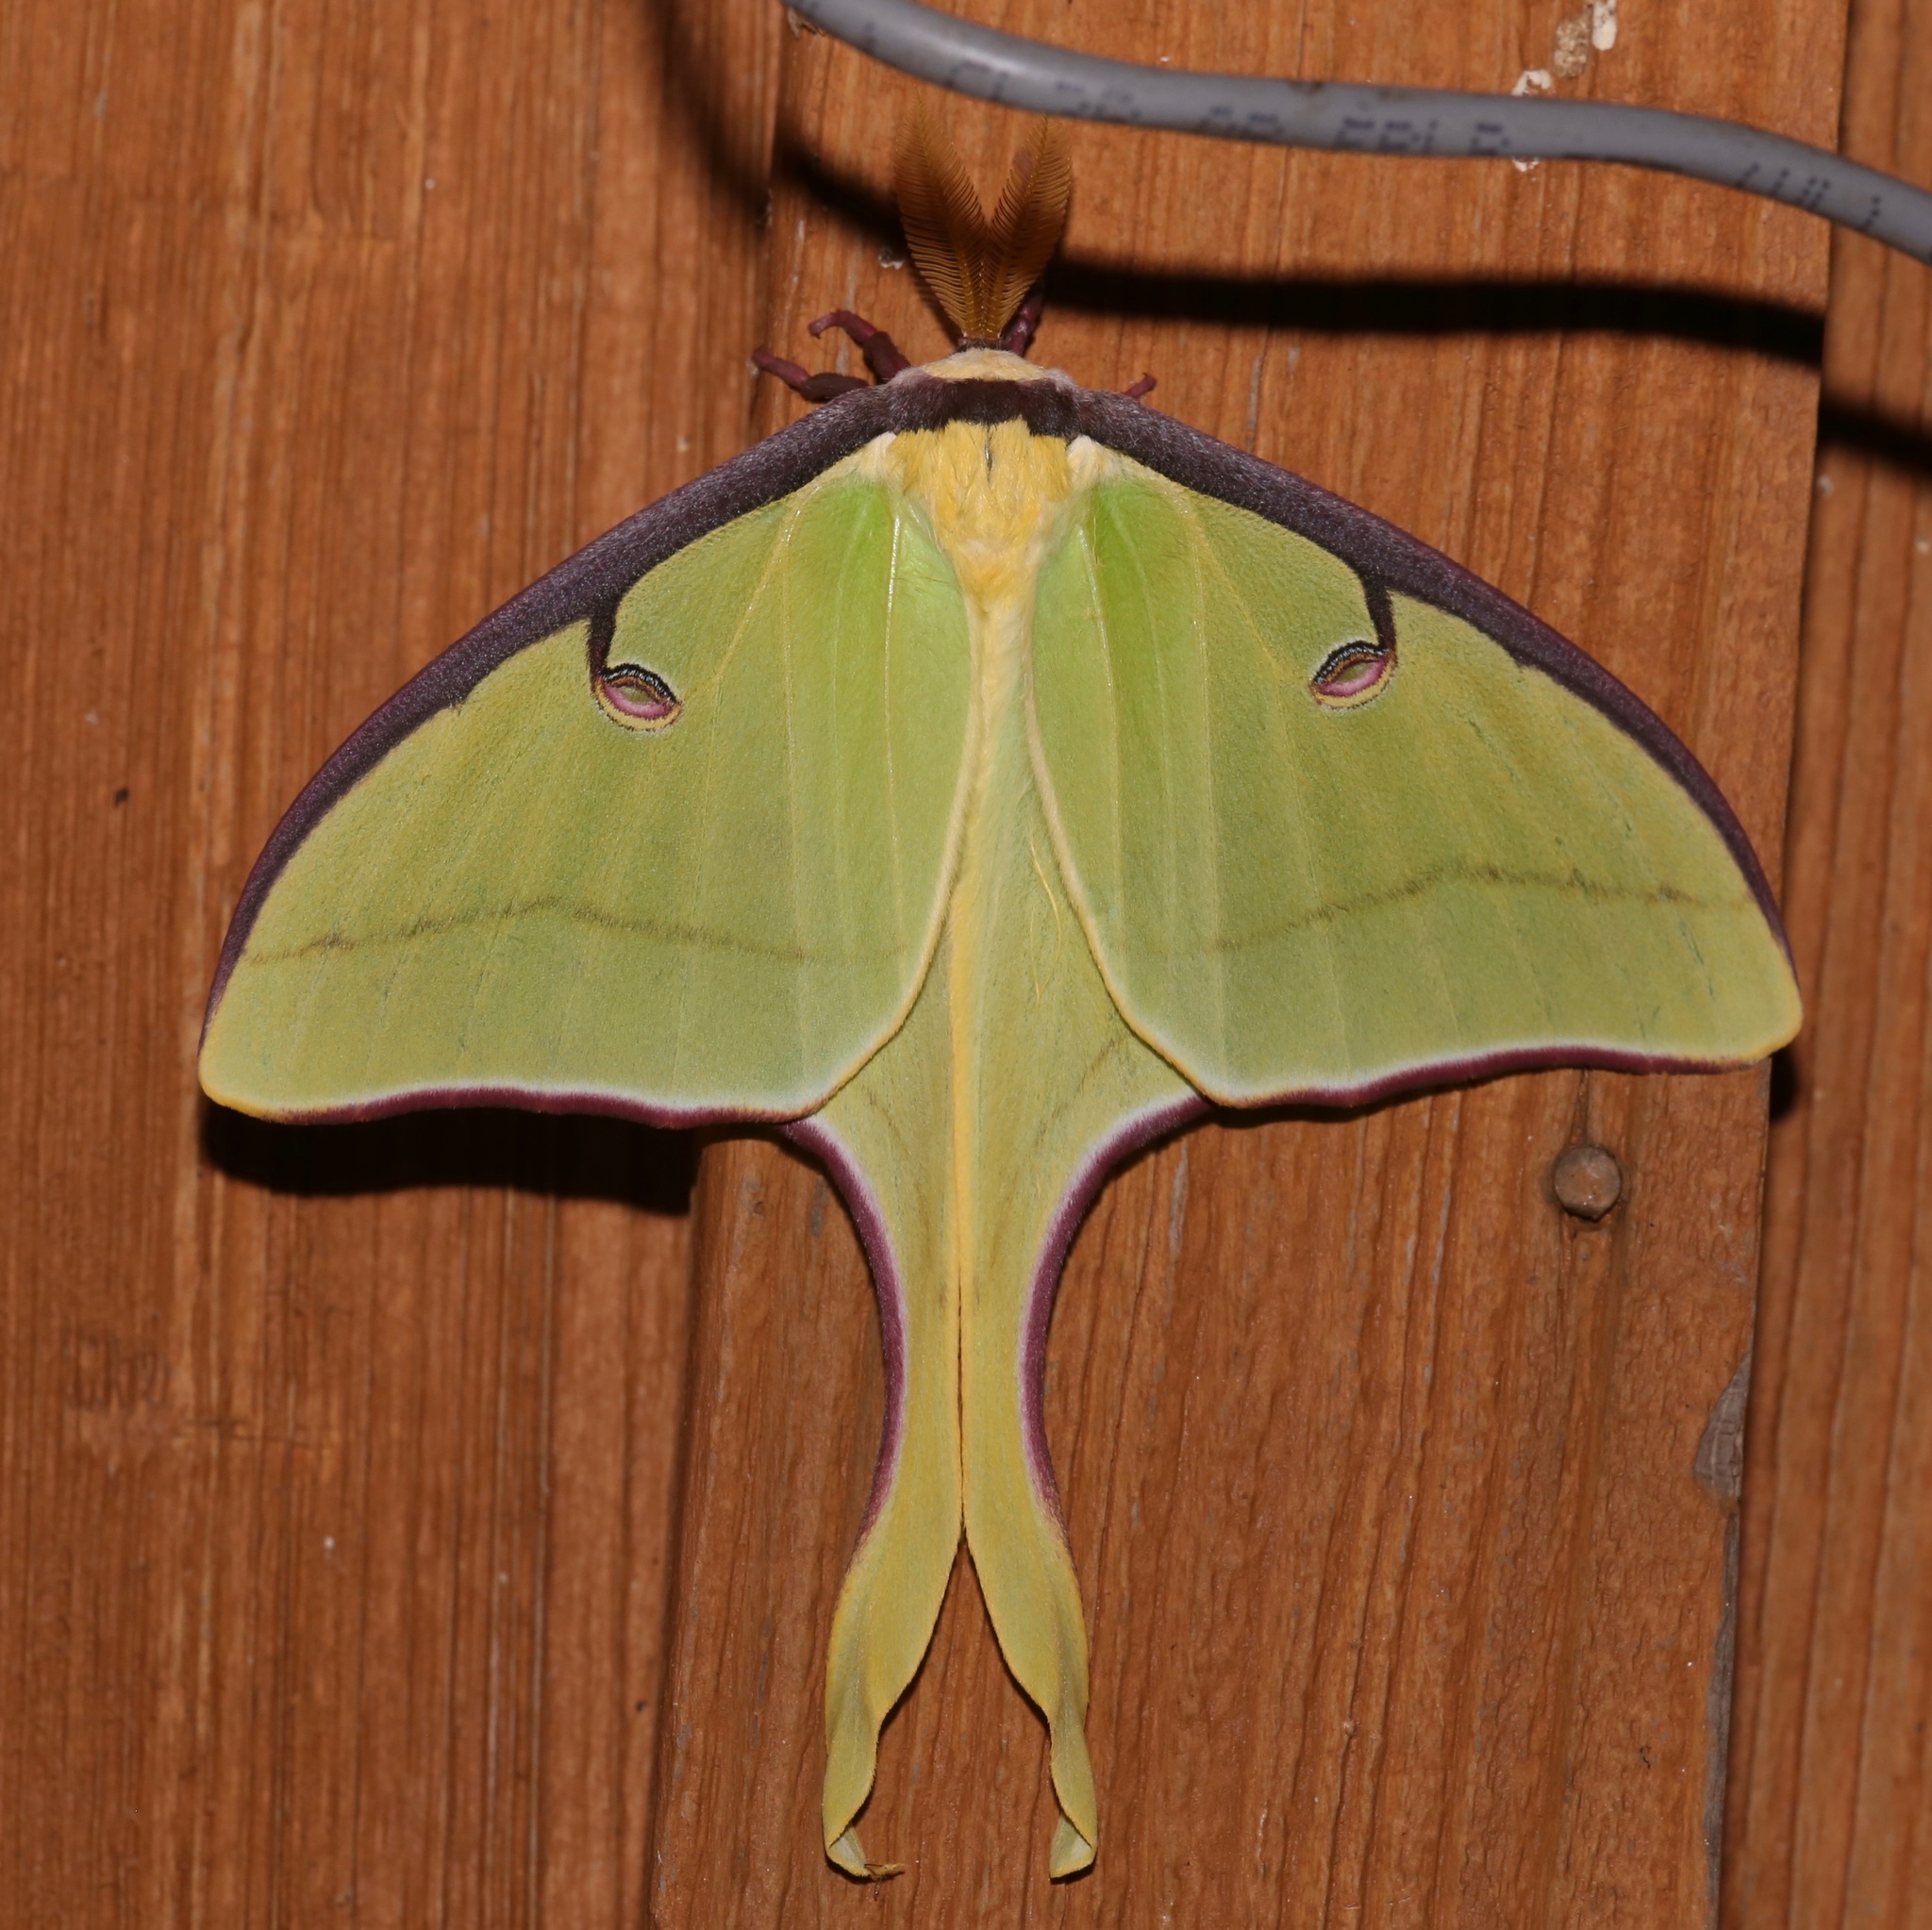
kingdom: Animalia
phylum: Arthropoda
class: Insecta
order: Lepidoptera
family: Saturniidae
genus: Actias
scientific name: Actias luna
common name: Luna moth
